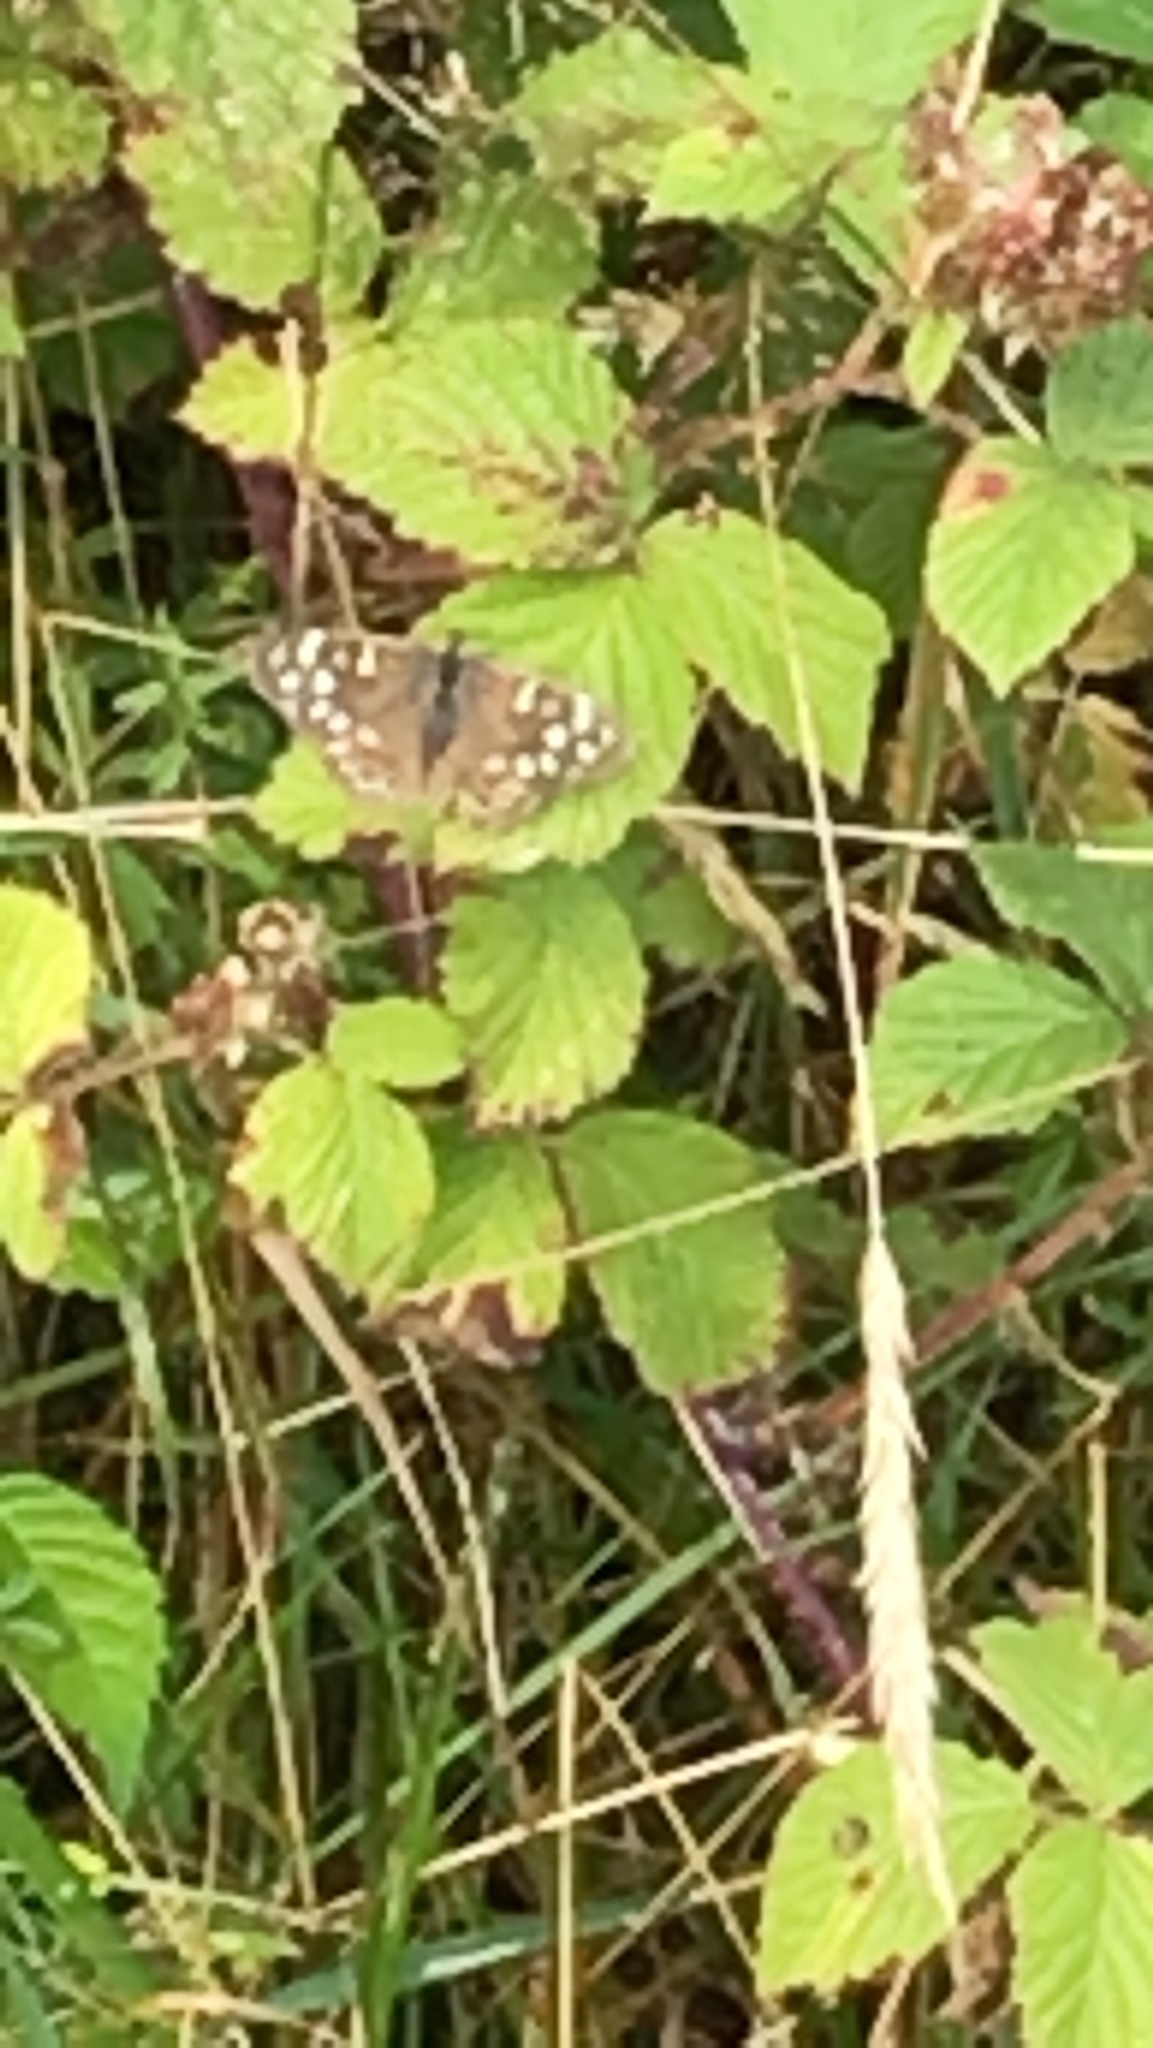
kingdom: Animalia
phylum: Arthropoda
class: Insecta
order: Lepidoptera
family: Nymphalidae
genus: Pararge
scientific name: Pararge aegeria
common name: Speckled wood
